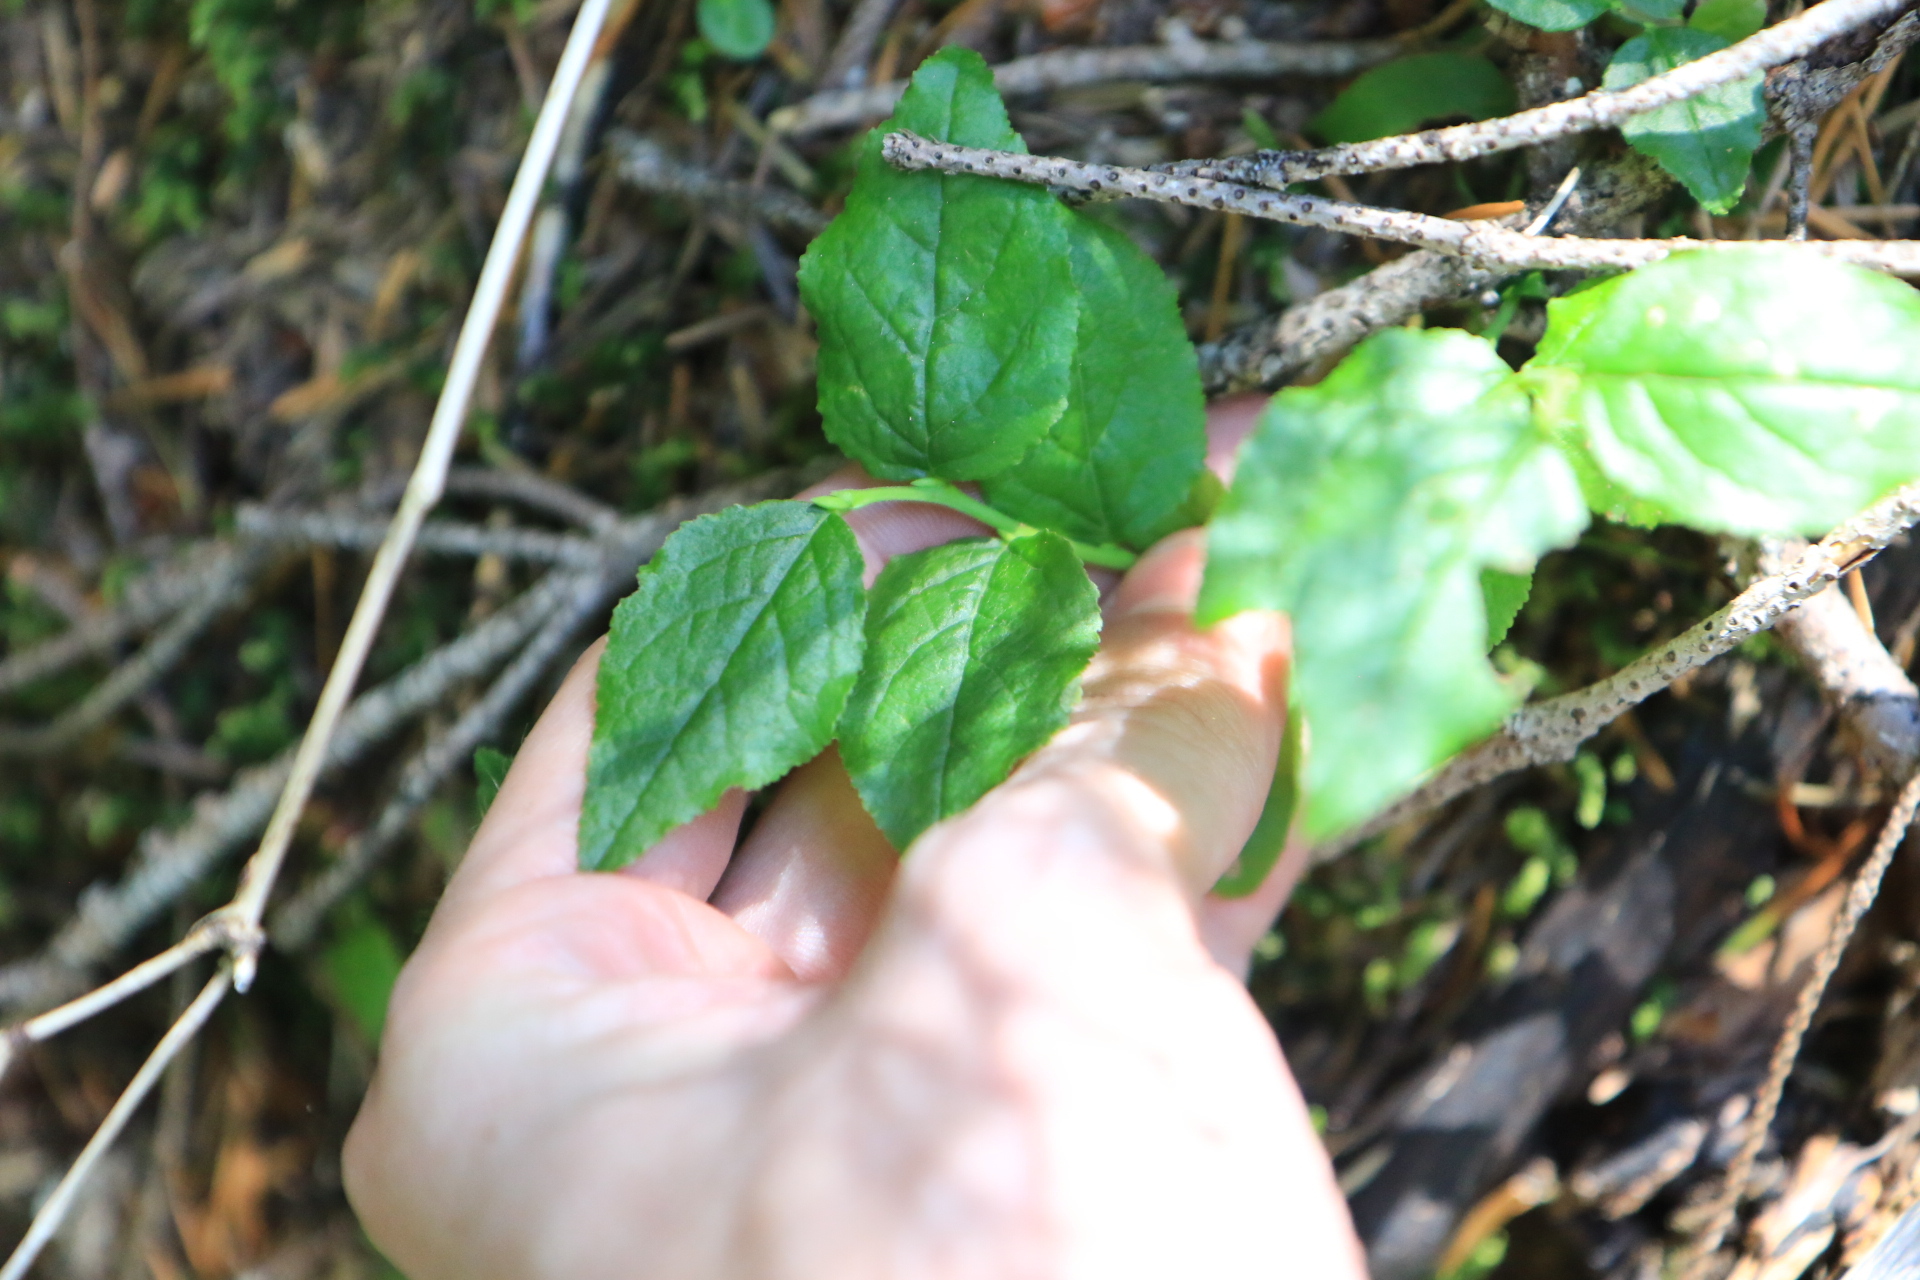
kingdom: Plantae
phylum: Tracheophyta
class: Magnoliopsida
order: Ericales
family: Ericaceae
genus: Orthilia
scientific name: Orthilia secunda
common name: One-sided orthilia
